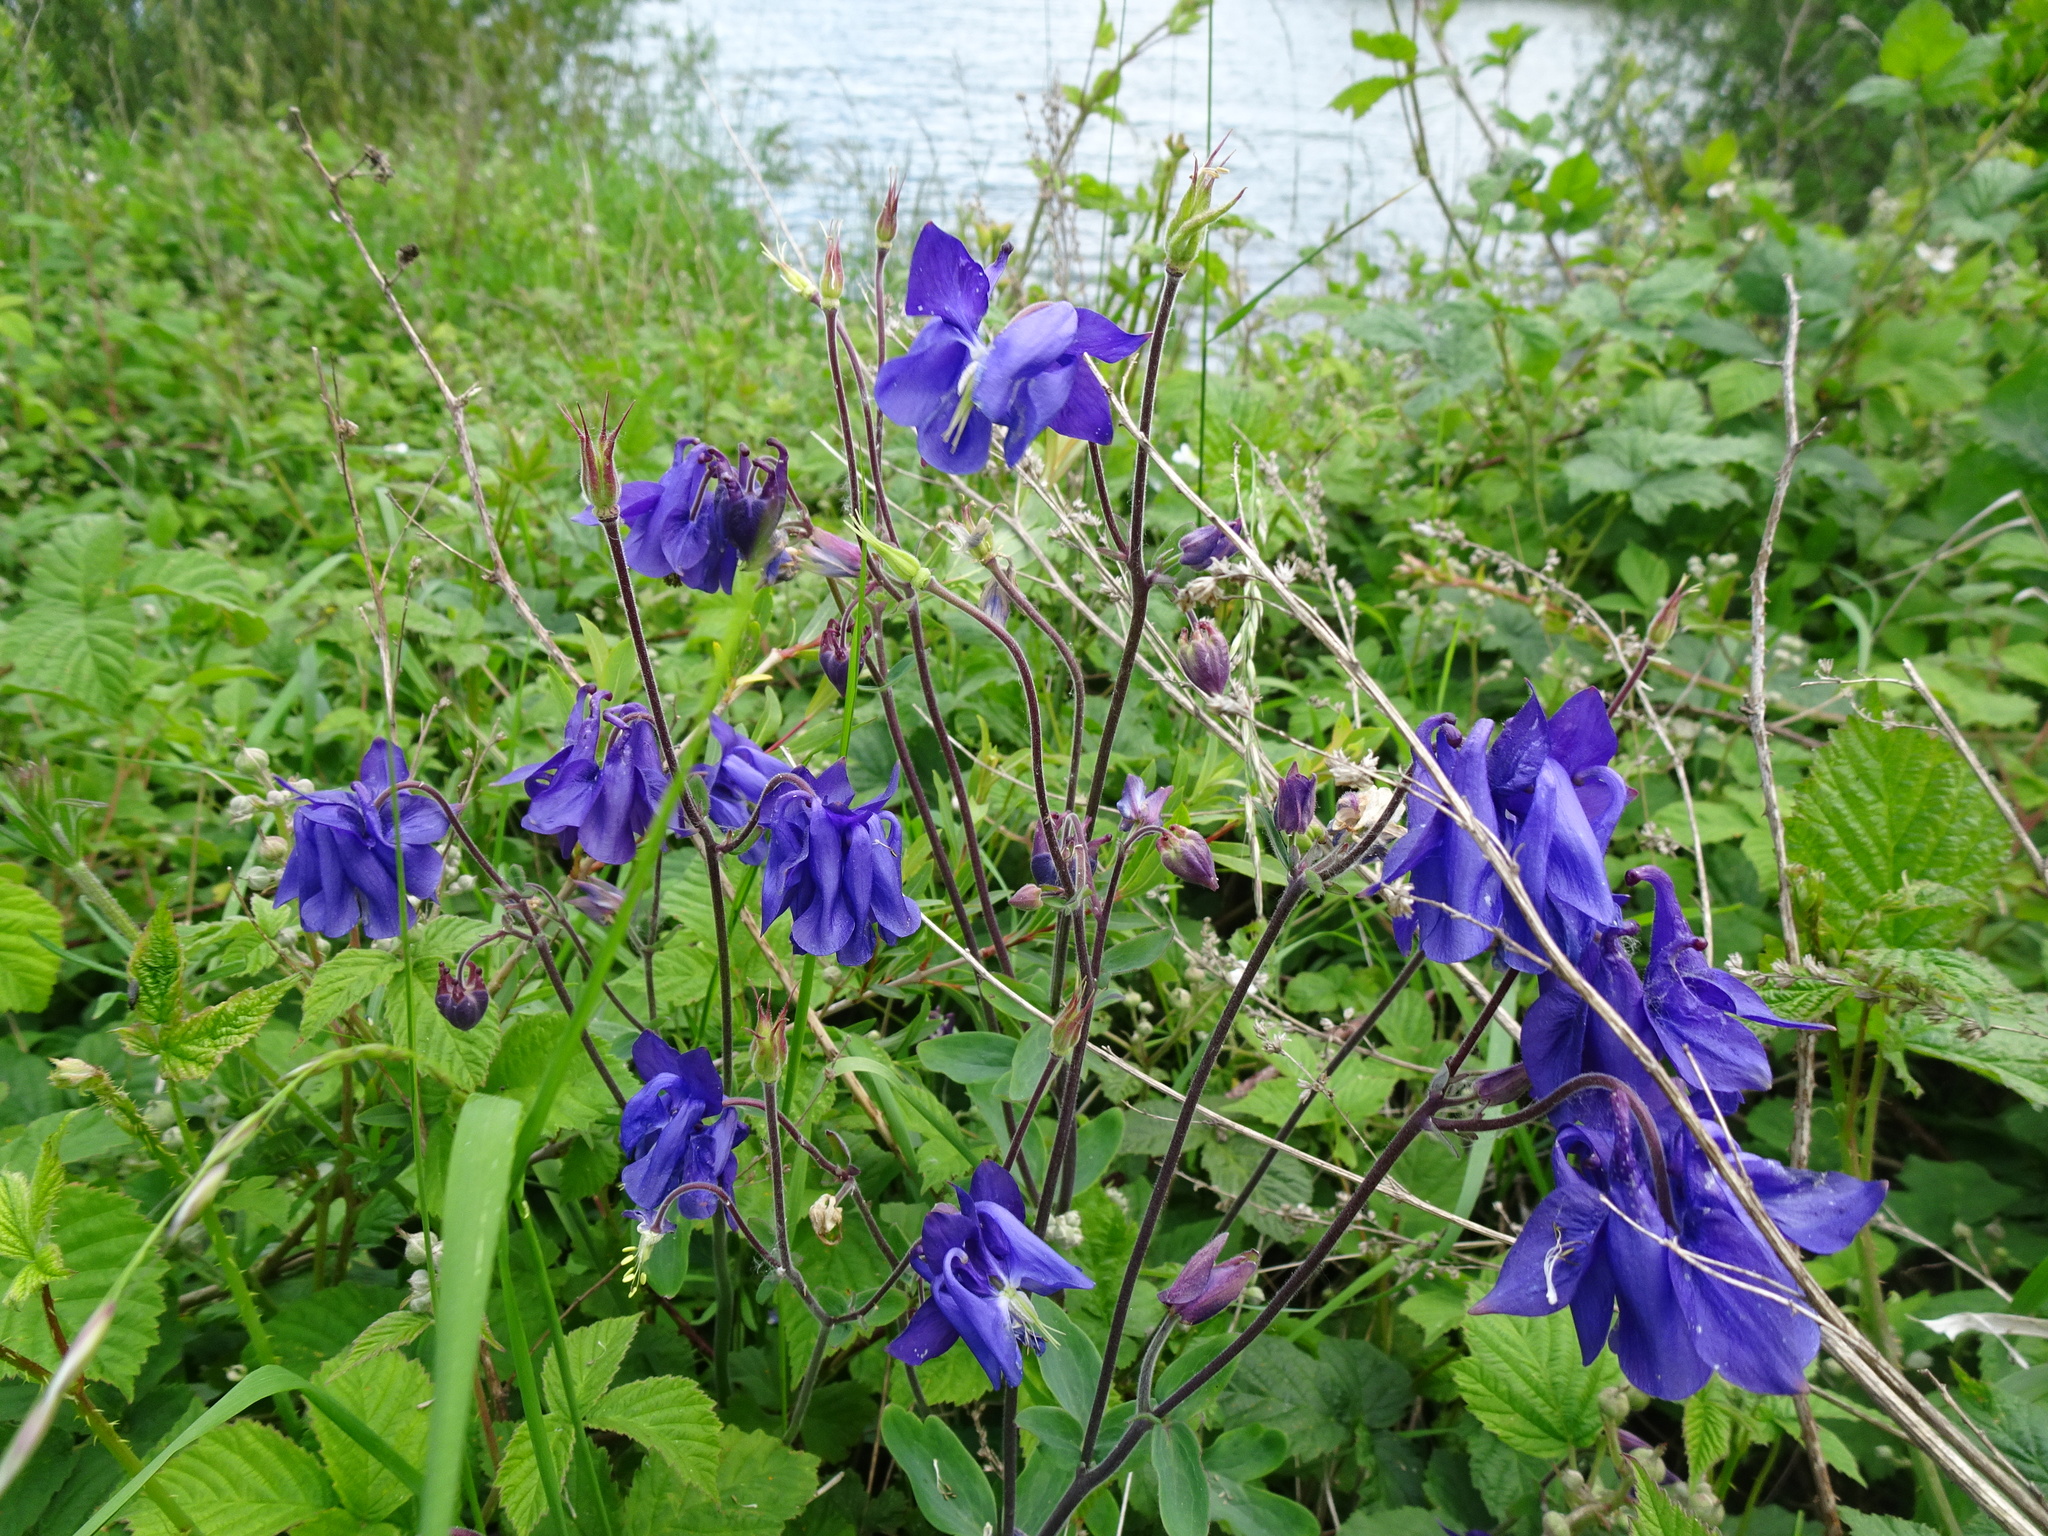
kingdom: Plantae
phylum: Tracheophyta
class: Magnoliopsida
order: Ranunculales
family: Ranunculaceae
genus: Aquilegia
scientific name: Aquilegia
